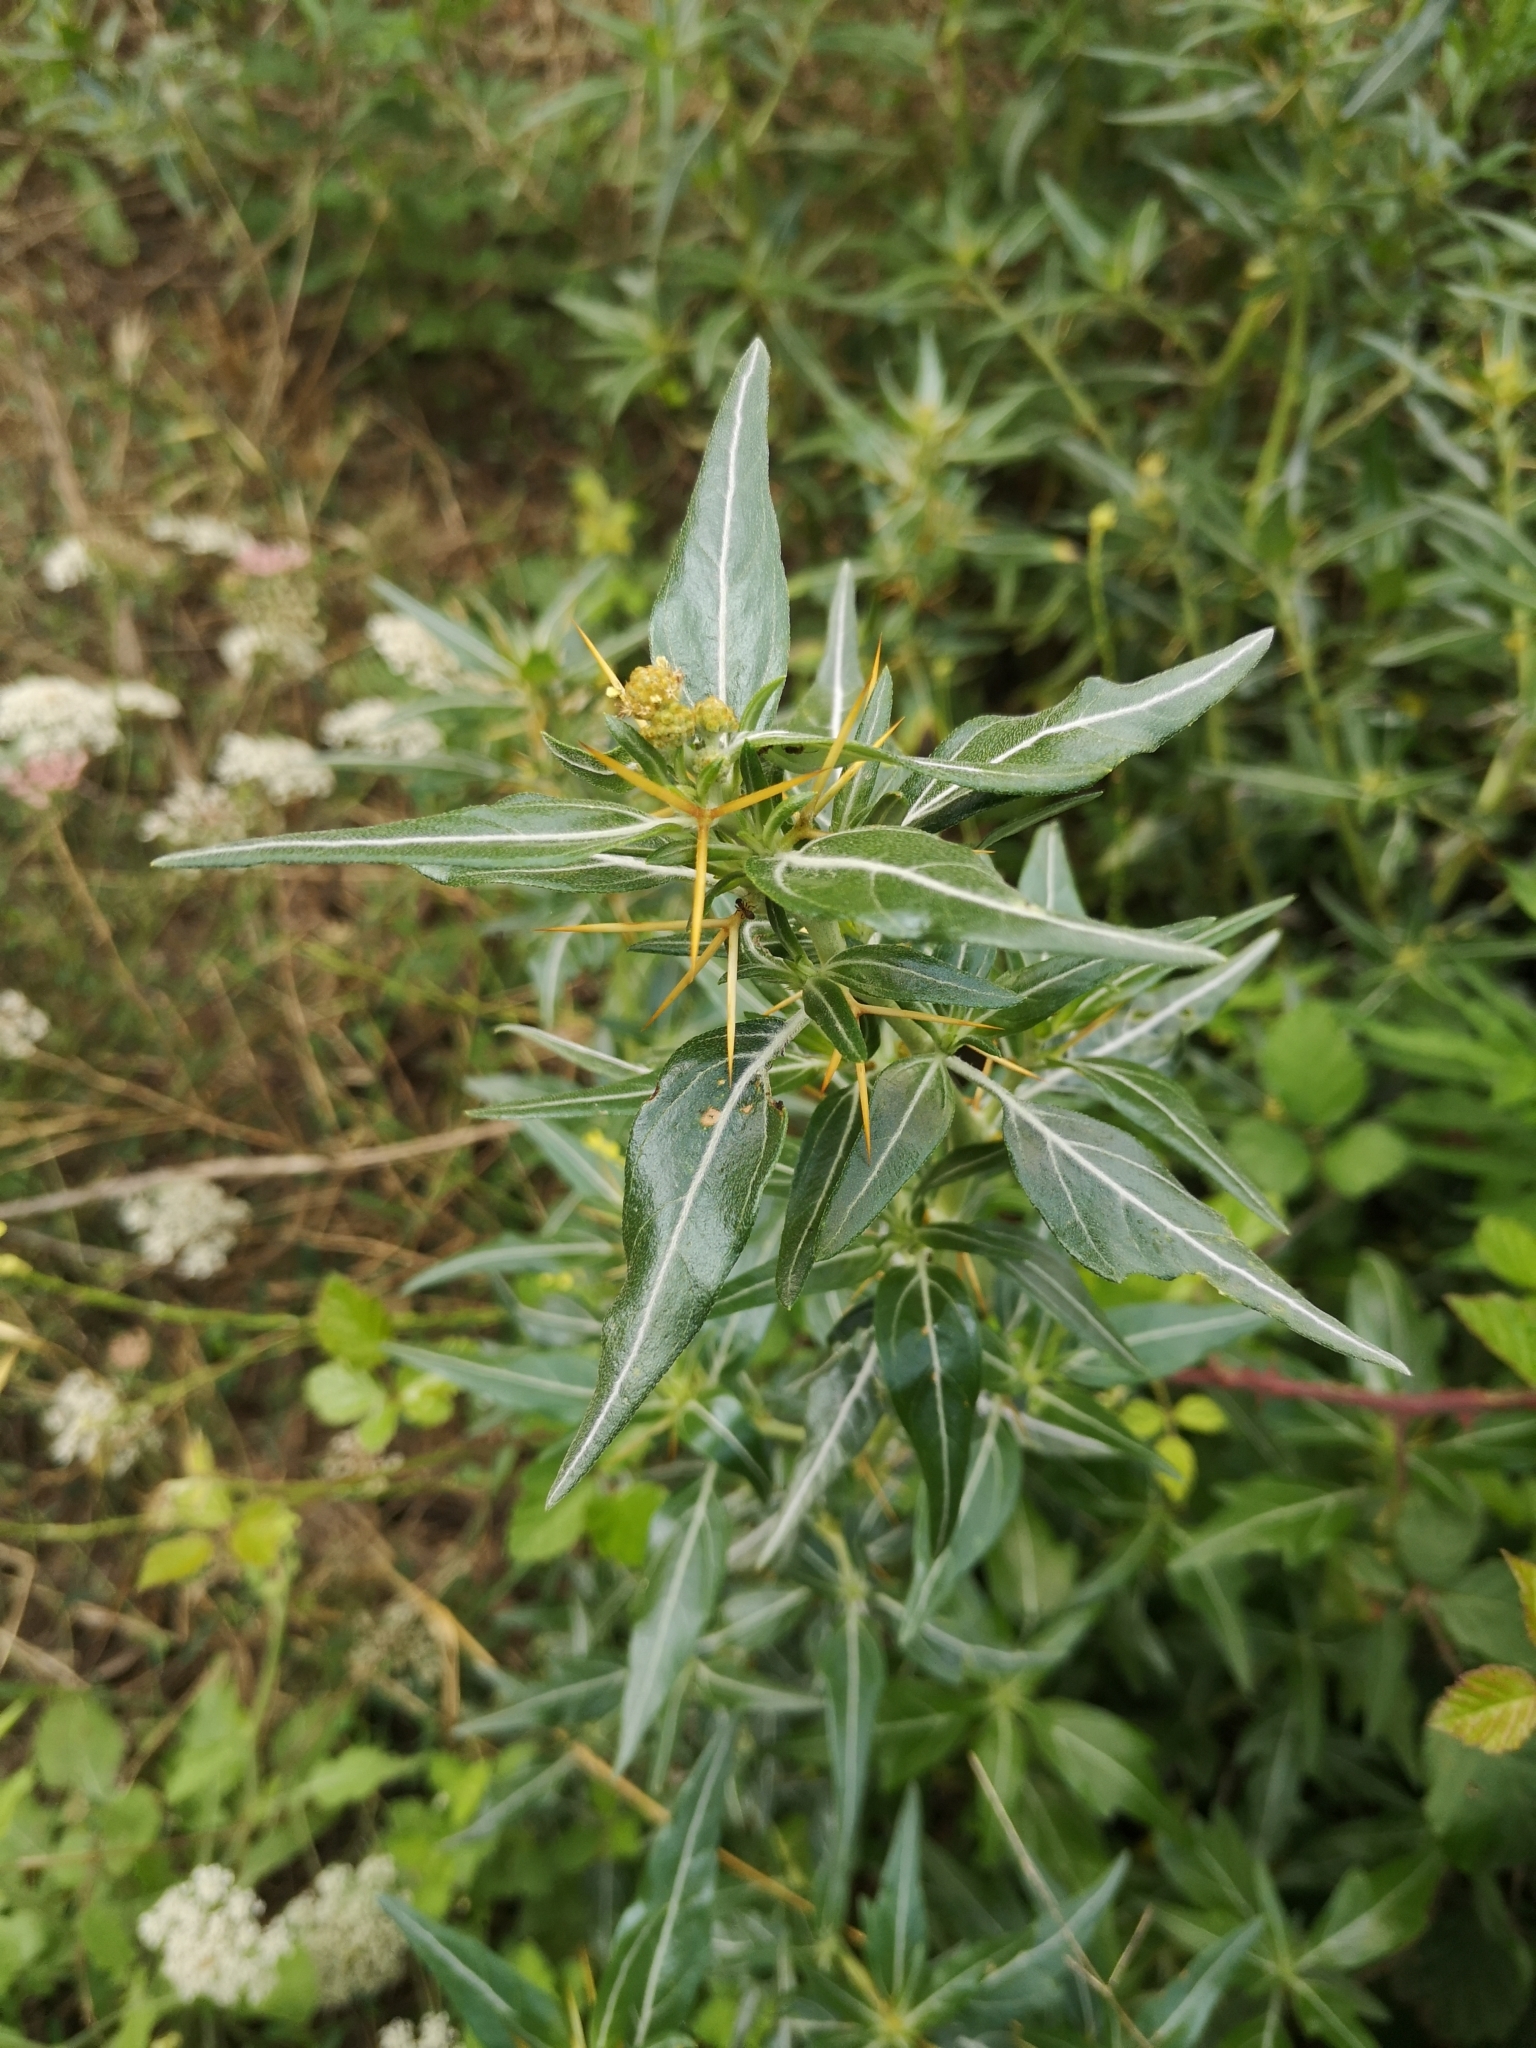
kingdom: Plantae
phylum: Tracheophyta
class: Magnoliopsida
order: Asterales
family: Asteraceae
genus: Xanthium
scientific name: Xanthium spinosum
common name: Spiny cocklebur
